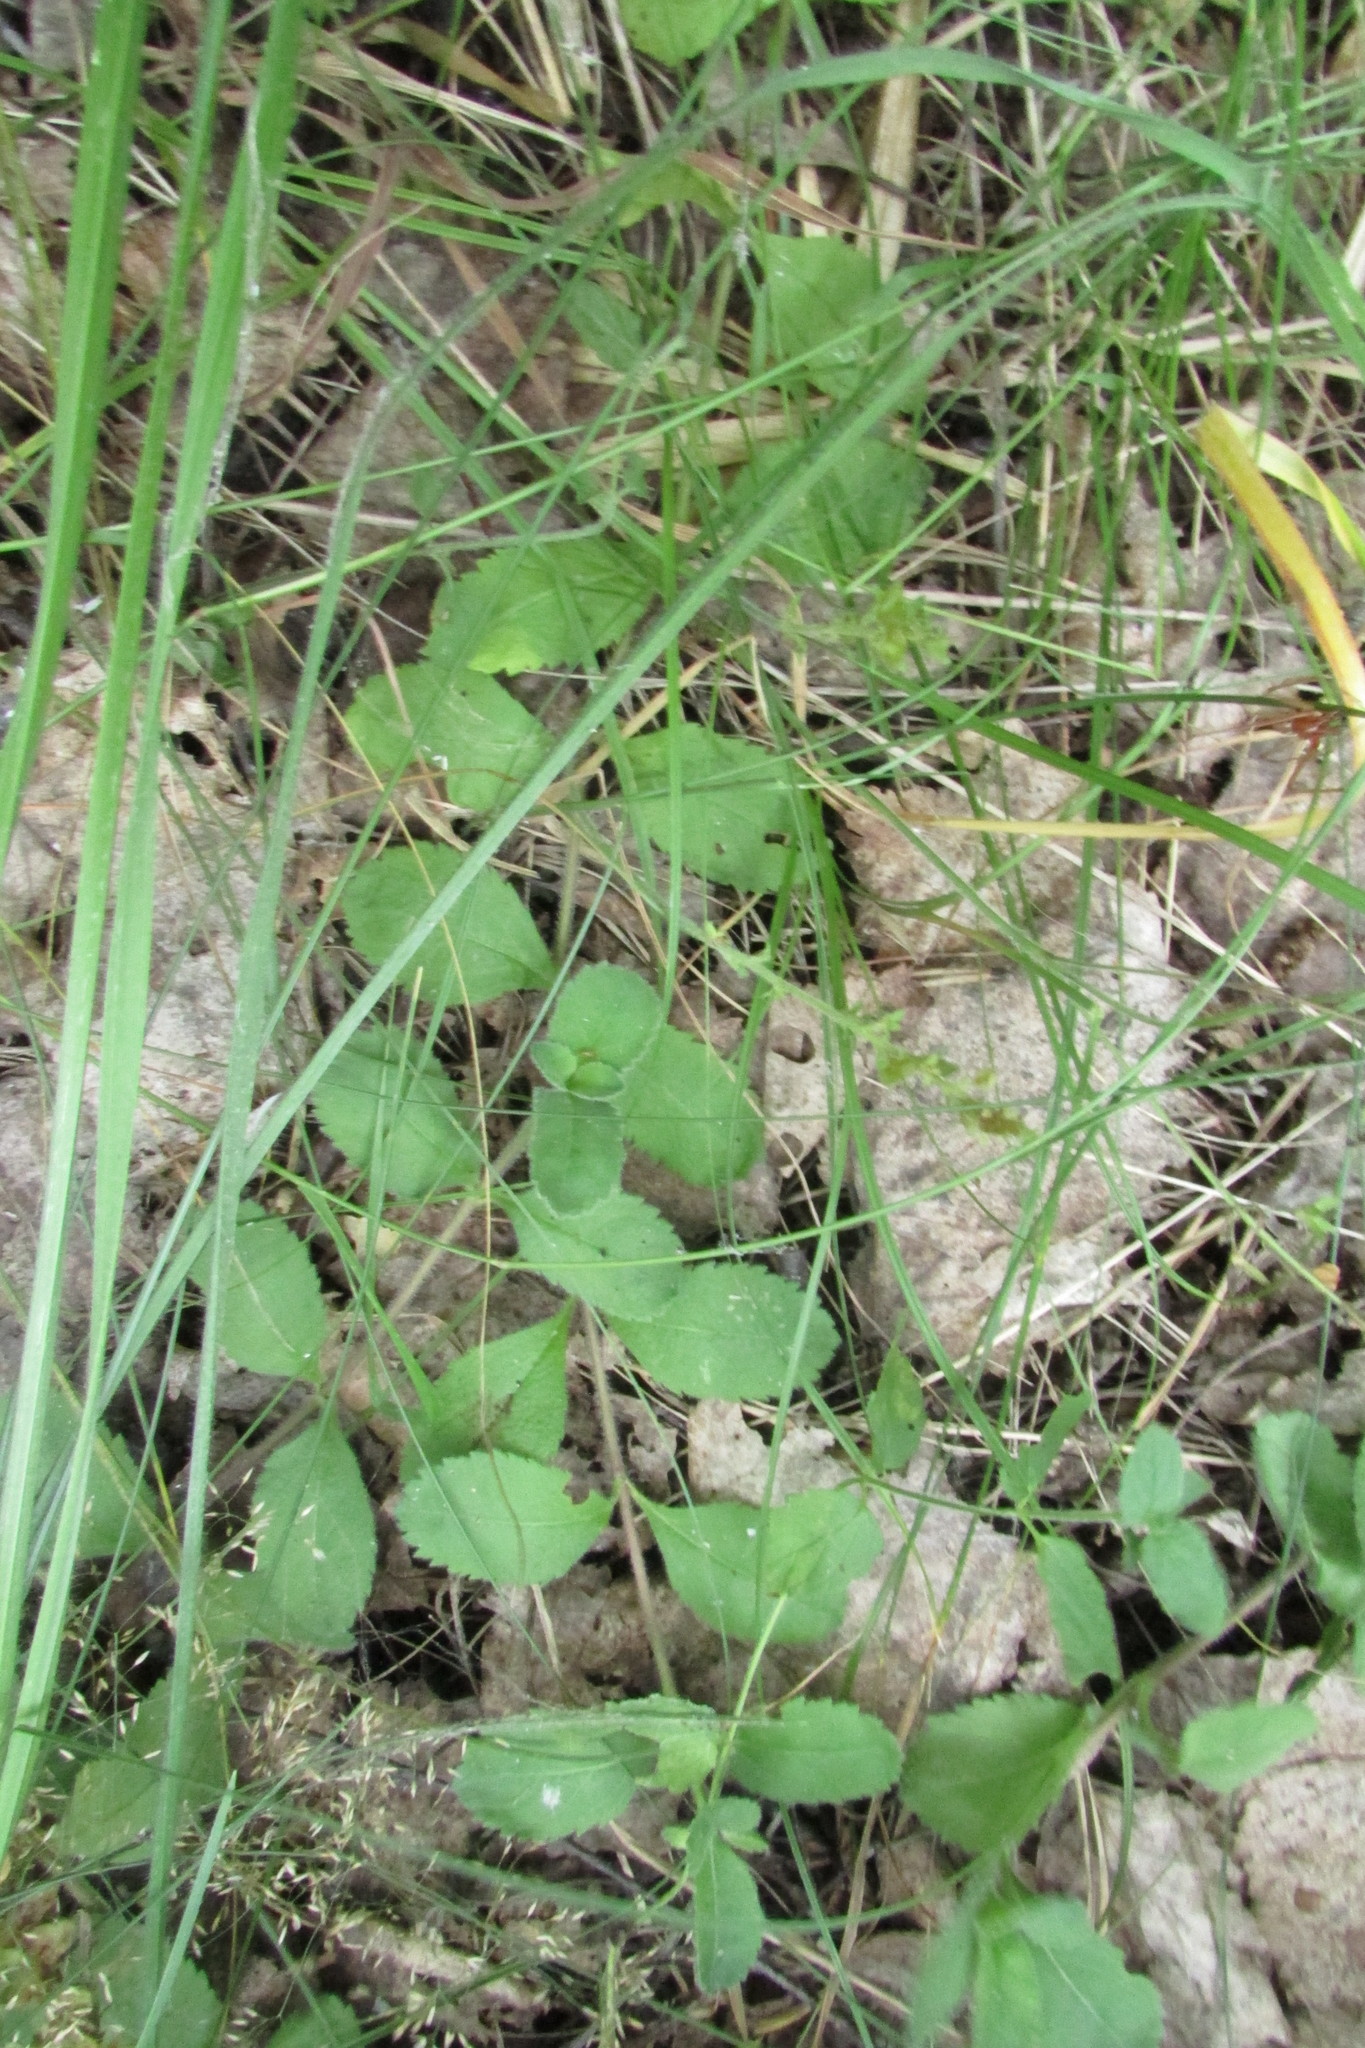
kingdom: Plantae
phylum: Tracheophyta
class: Magnoliopsida
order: Lamiales
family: Plantaginaceae
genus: Veronica
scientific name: Veronica officinalis
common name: Common speedwell
